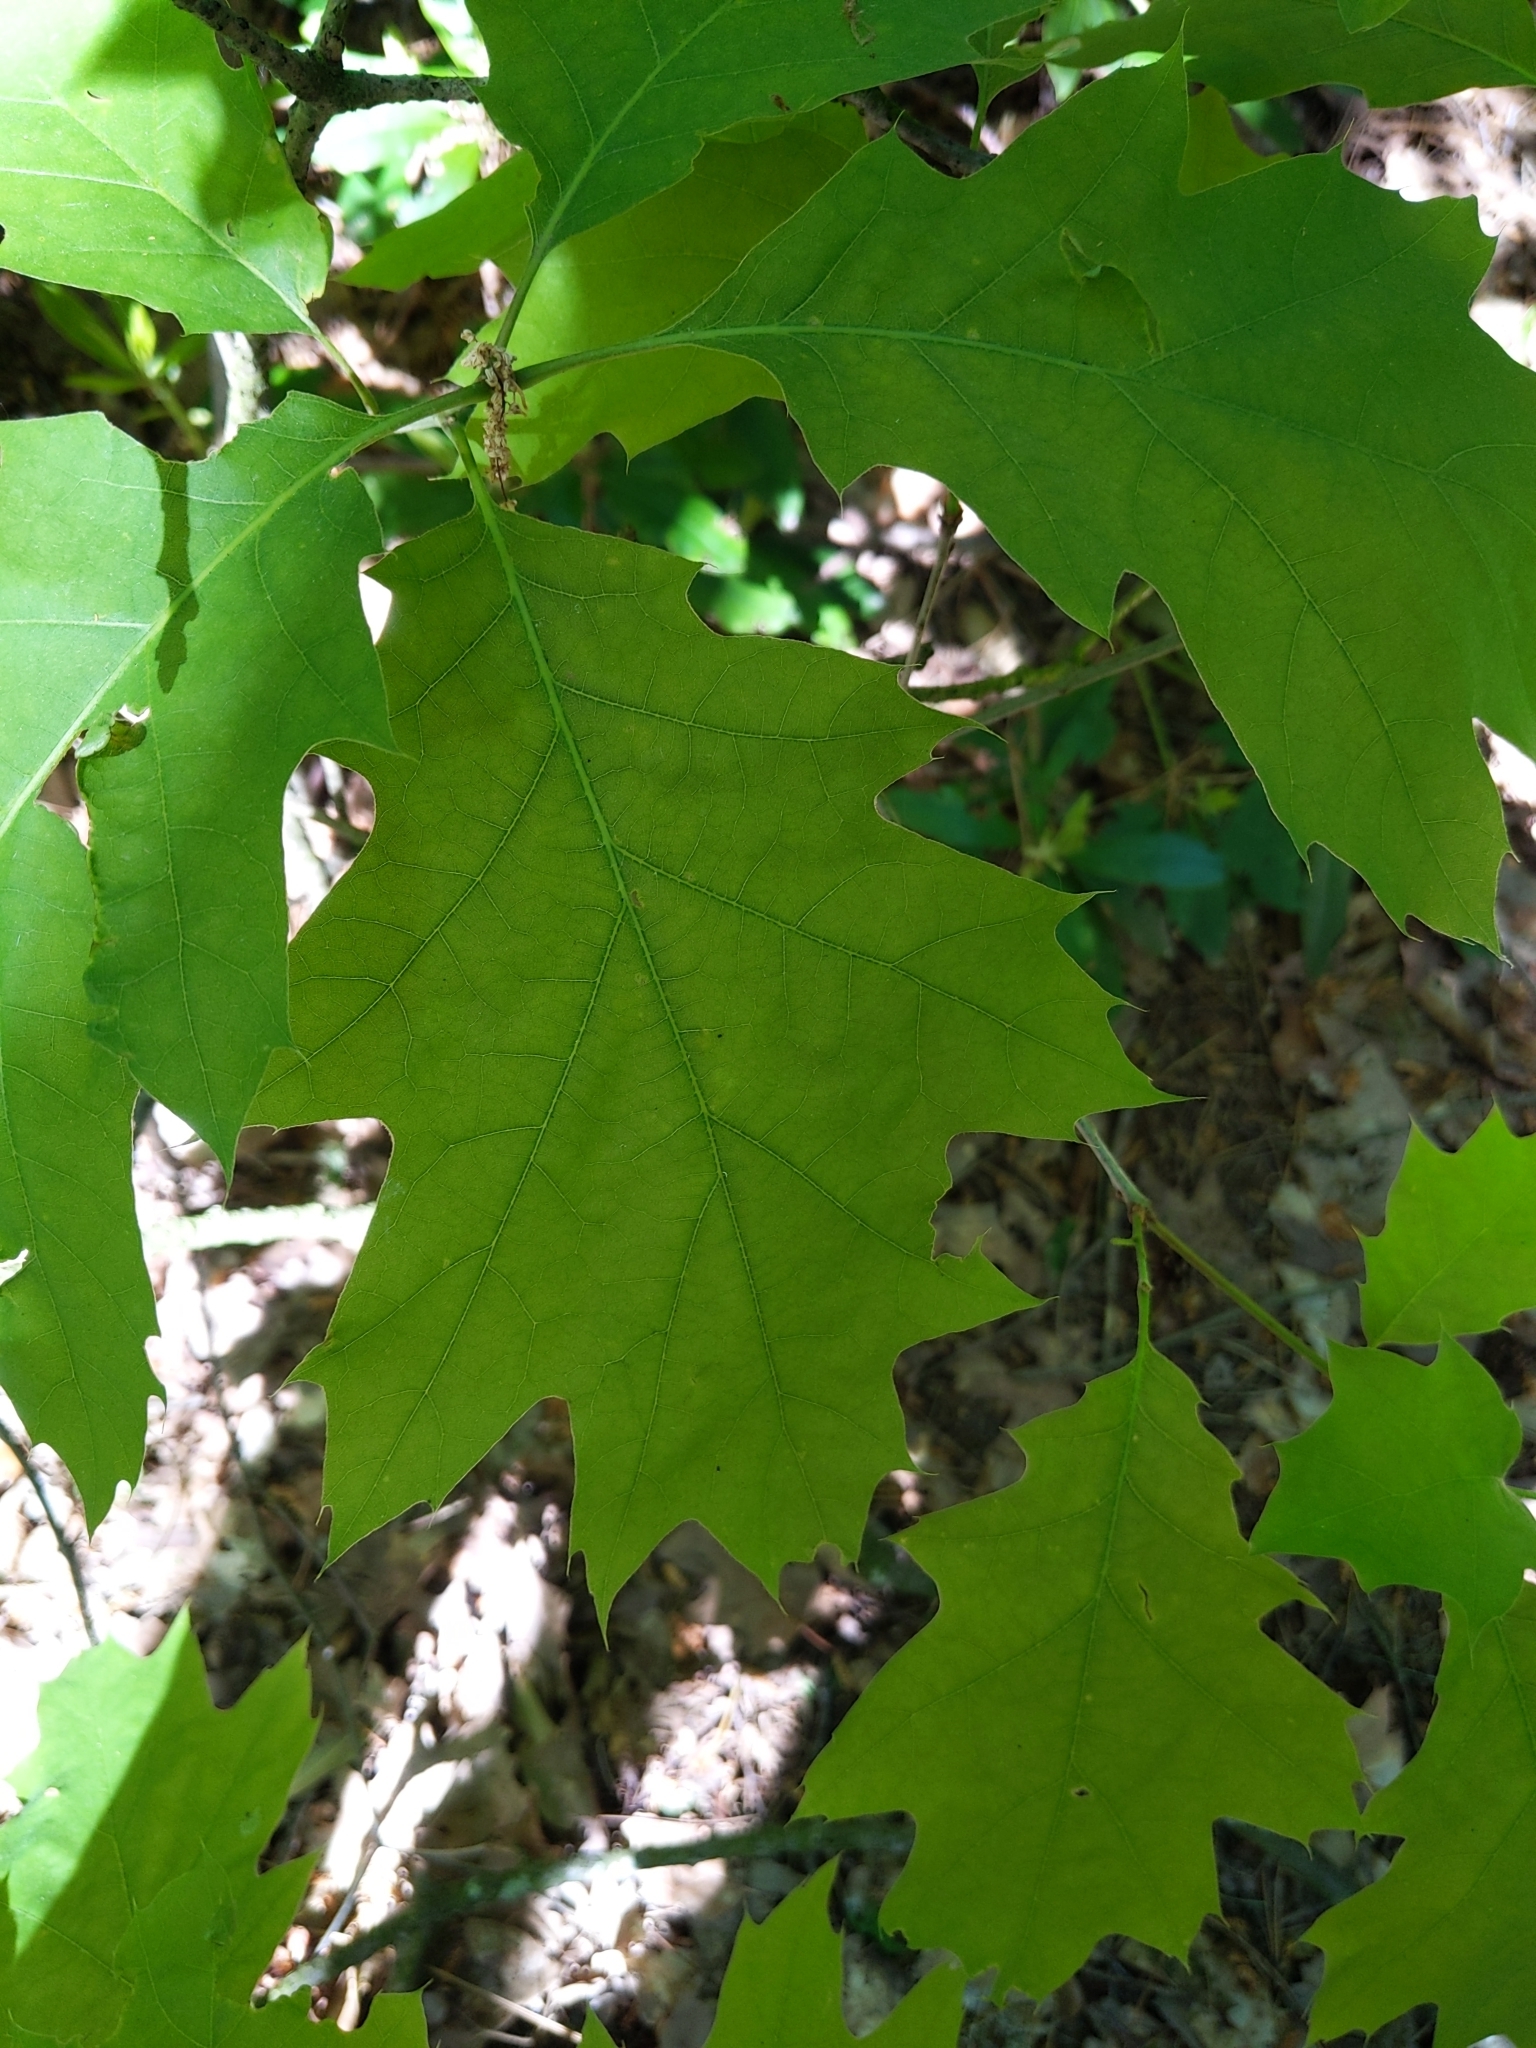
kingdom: Plantae
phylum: Tracheophyta
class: Magnoliopsida
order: Fagales
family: Fagaceae
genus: Quercus
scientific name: Quercus rubra
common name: Red oak
